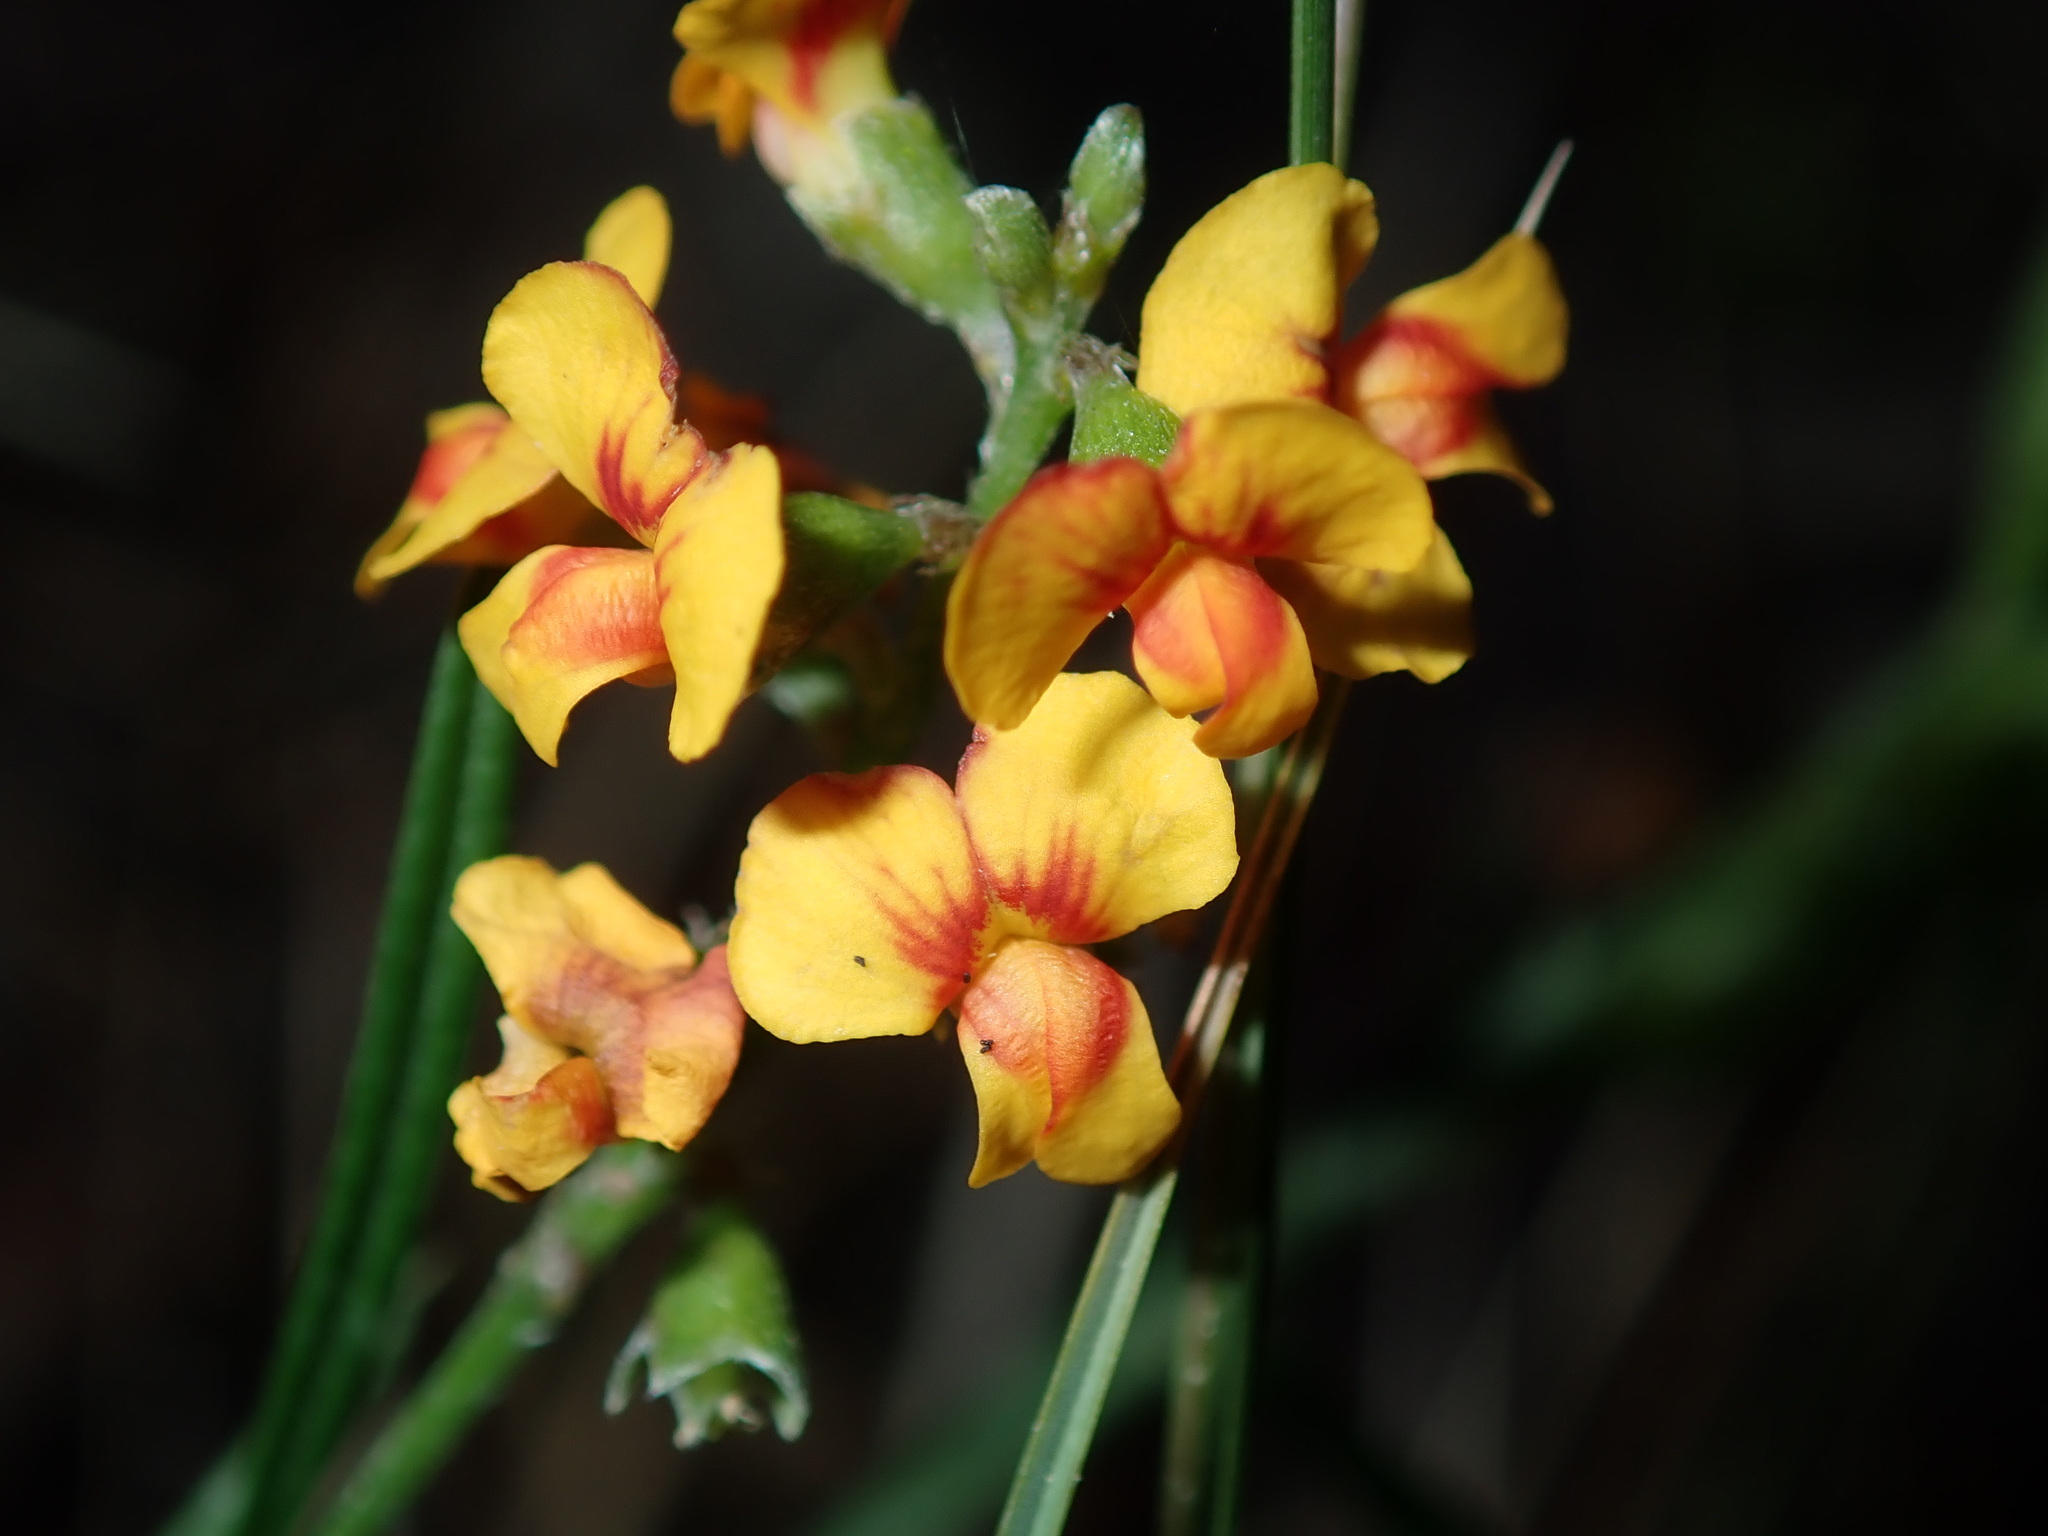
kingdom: Plantae
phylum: Tracheophyta
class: Magnoliopsida
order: Fabales
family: Fabaceae
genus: Chorizema
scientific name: Chorizema parviflorum
